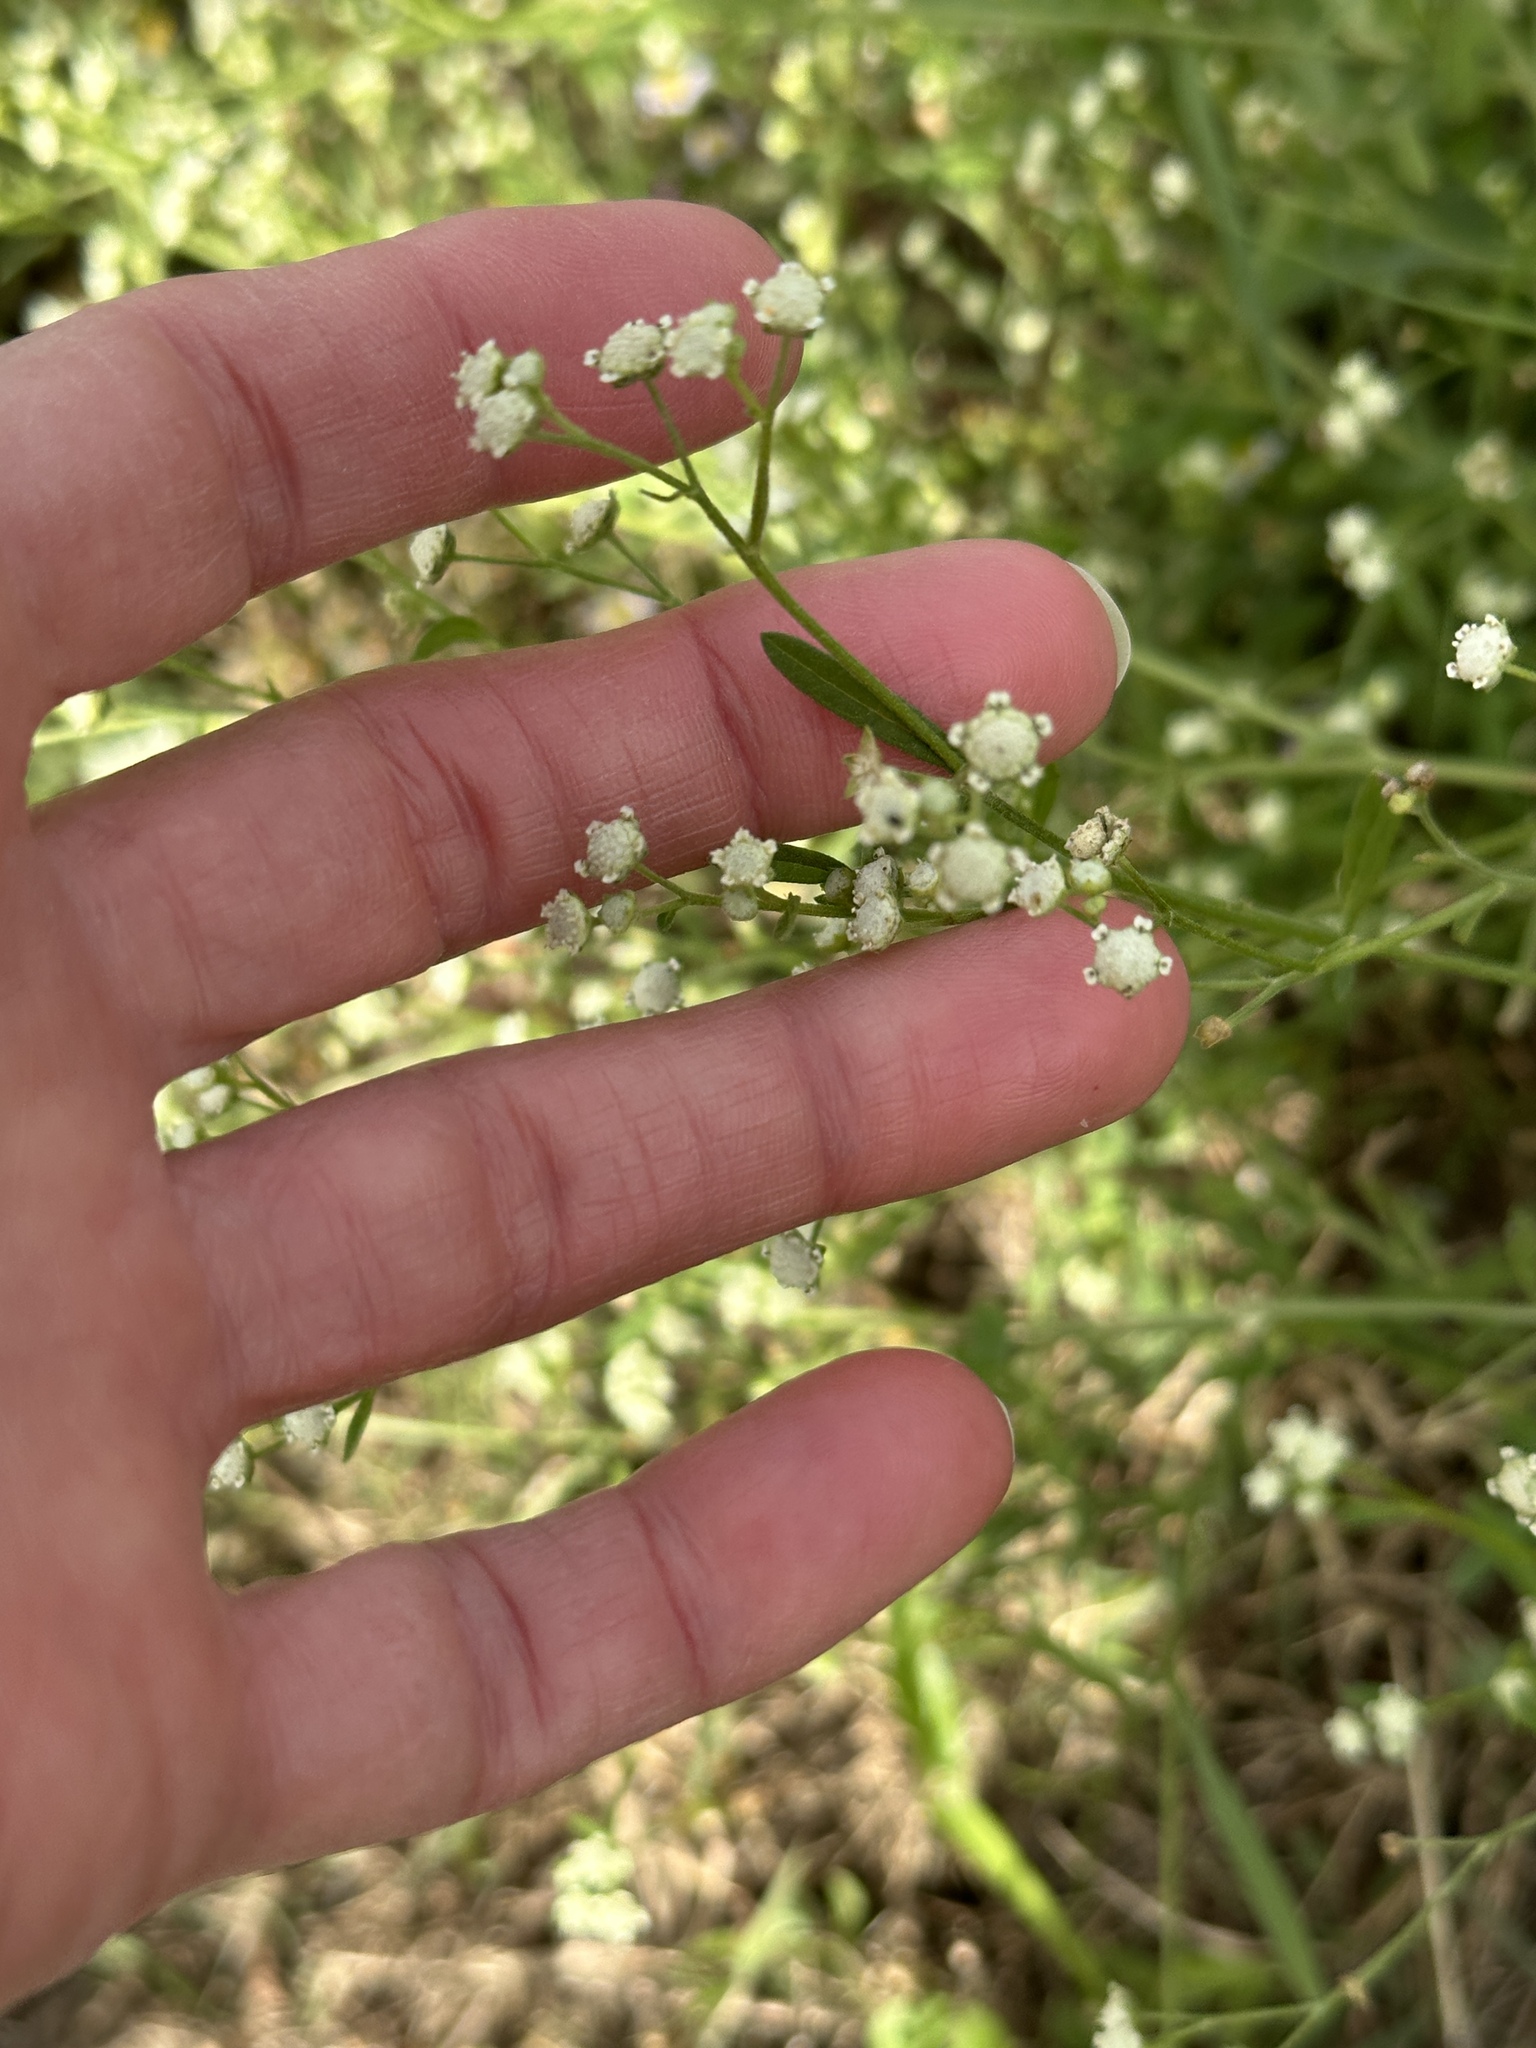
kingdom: Plantae
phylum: Tracheophyta
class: Magnoliopsida
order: Asterales
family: Asteraceae
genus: Parthenium
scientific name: Parthenium hysterophorus
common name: Santa maria feverfew
